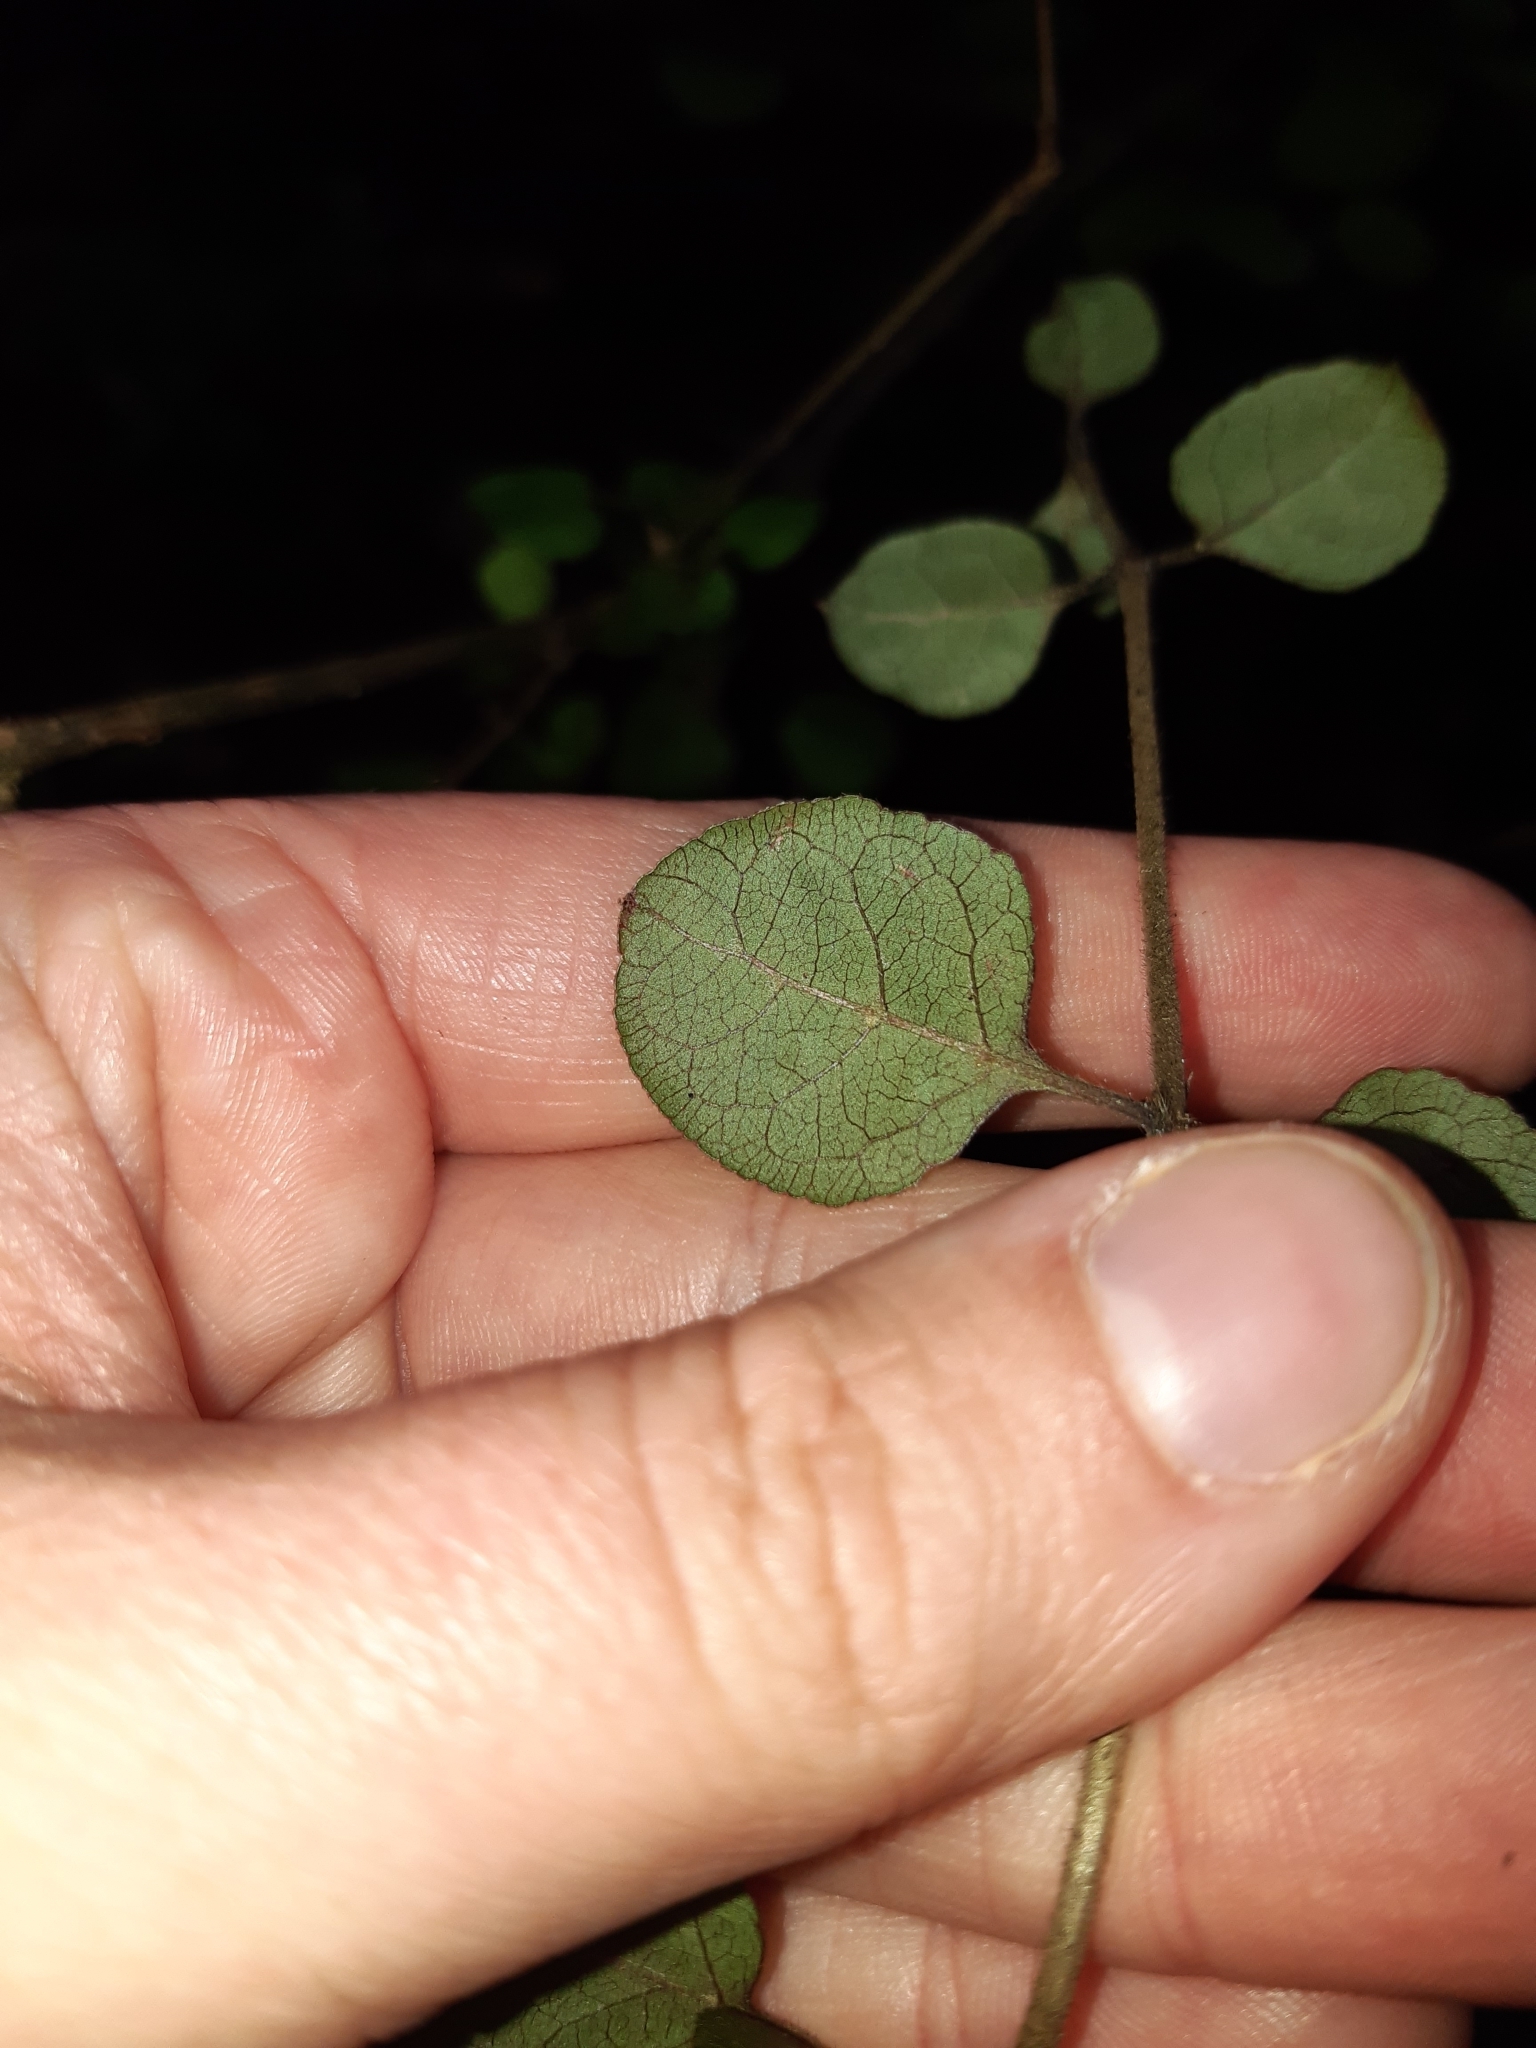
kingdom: Plantae
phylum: Tracheophyta
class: Magnoliopsida
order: Gentianales
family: Rubiaceae
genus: Coprosma
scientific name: Coprosma rotundifolia
